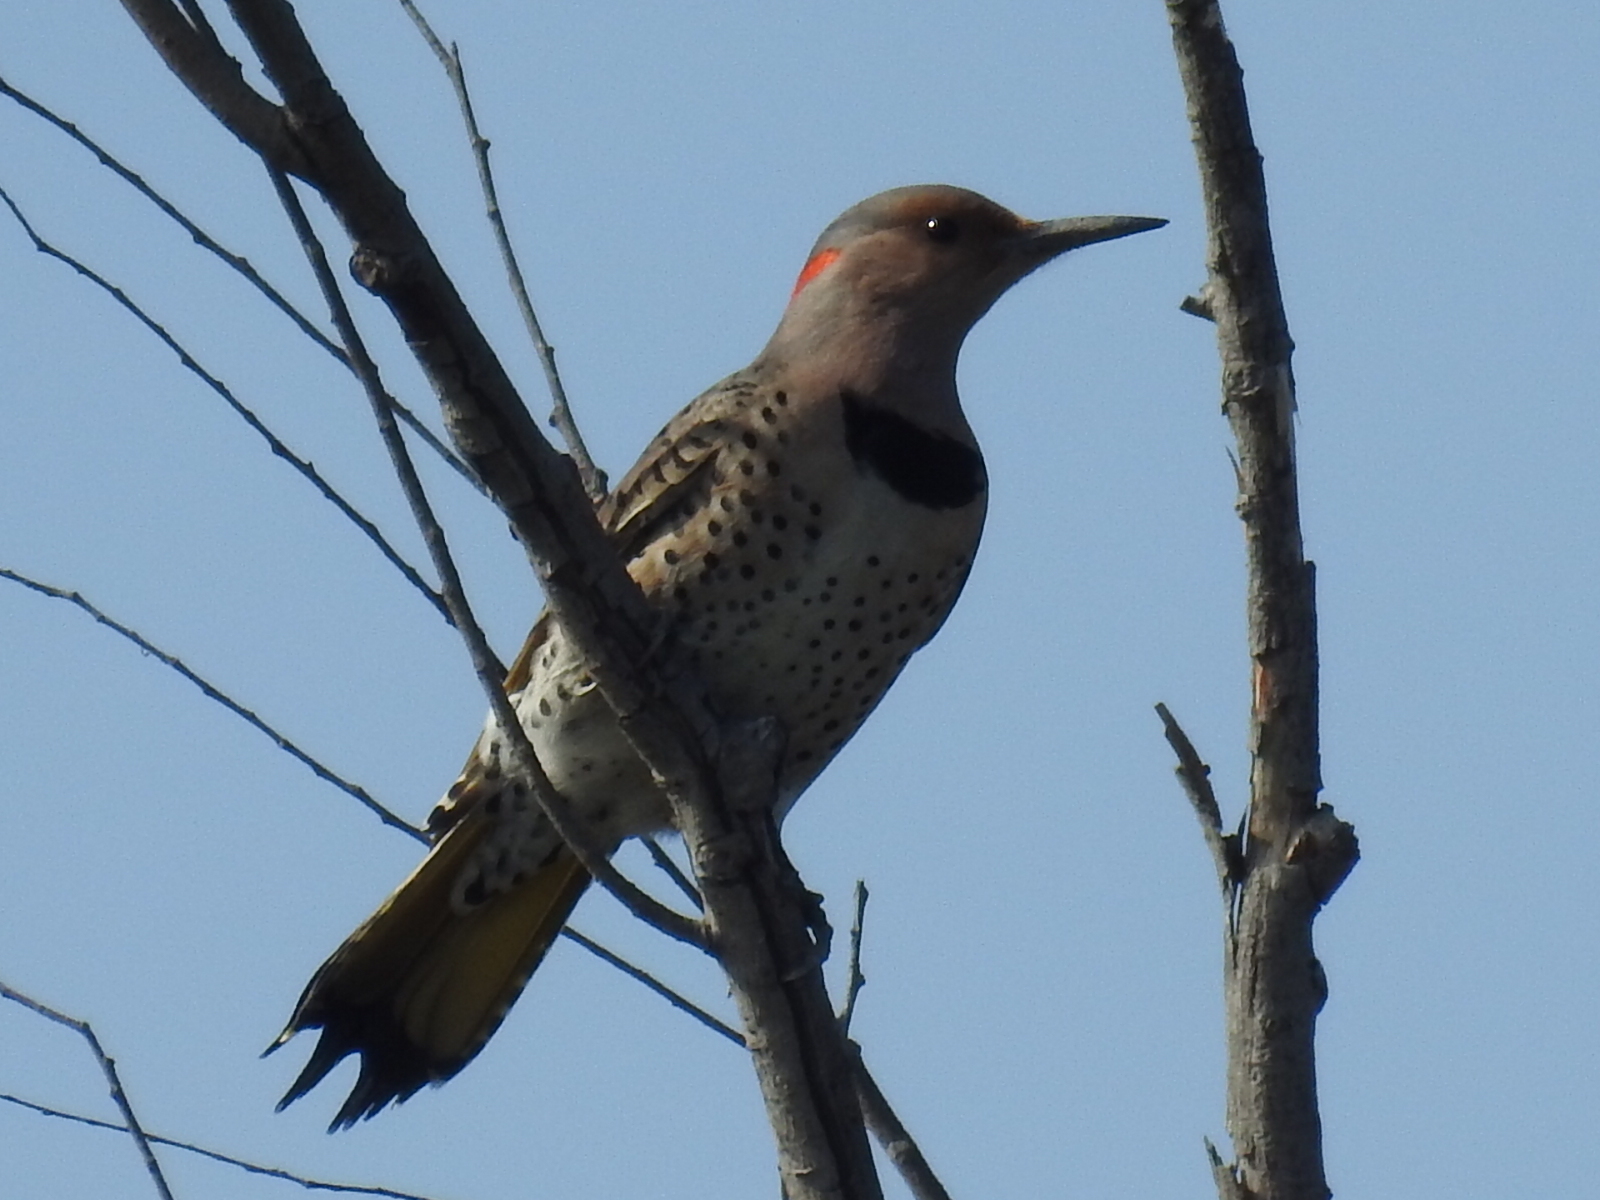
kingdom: Animalia
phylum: Chordata
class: Aves
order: Piciformes
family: Picidae
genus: Colaptes
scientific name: Colaptes auratus
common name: Northern flicker
